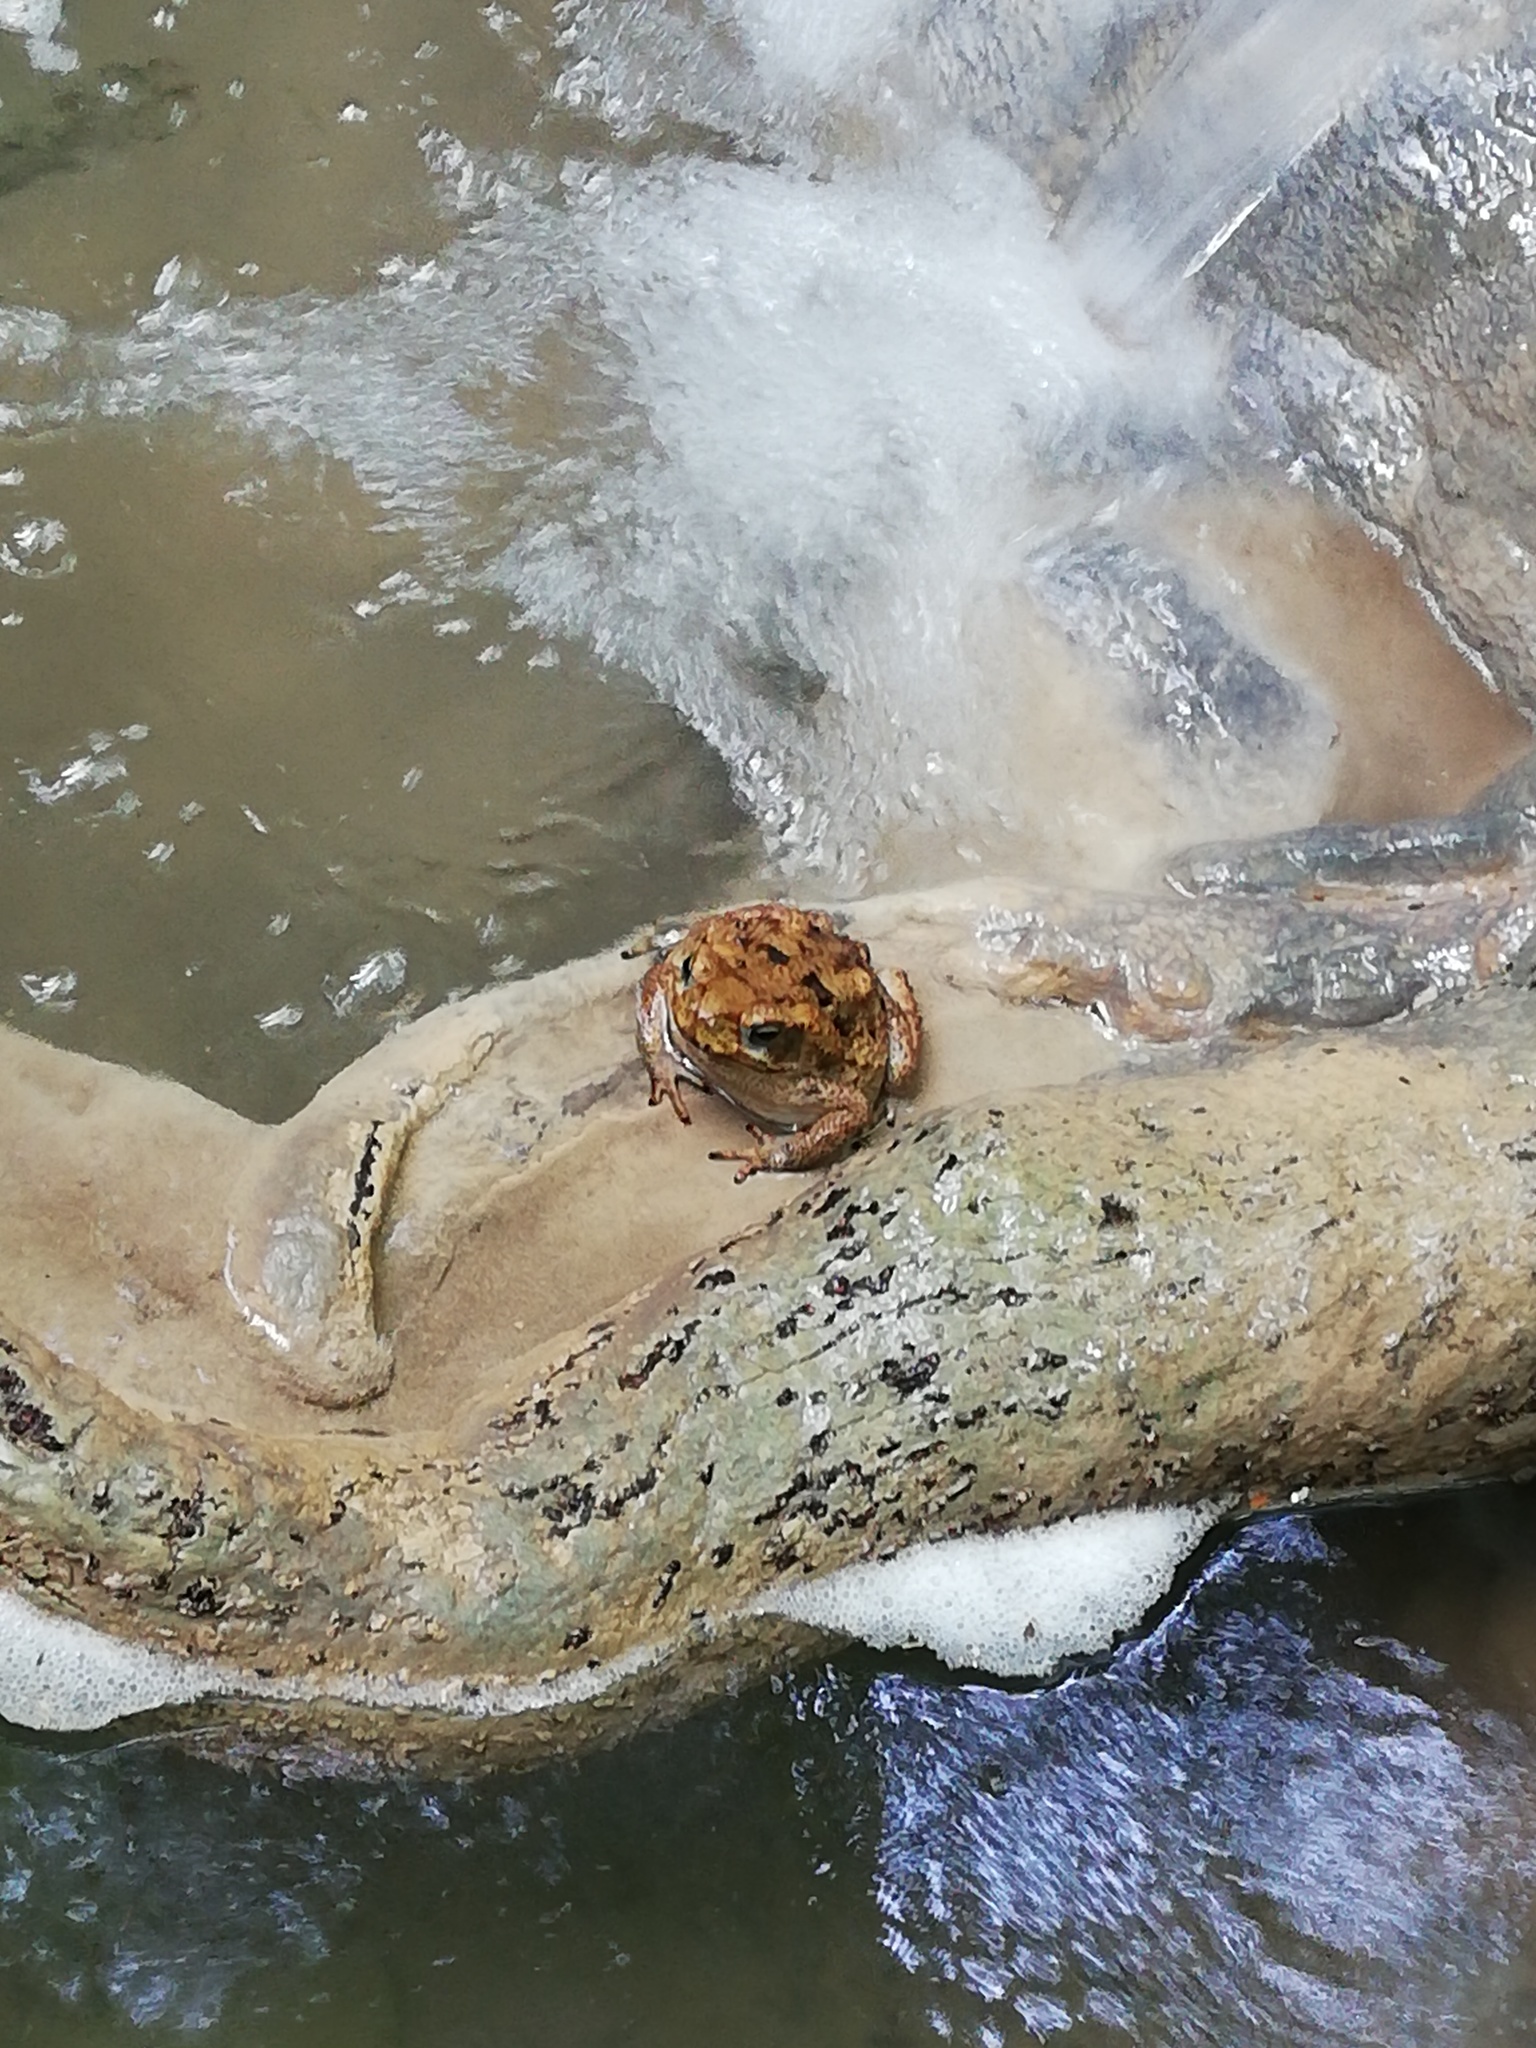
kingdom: Animalia
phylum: Chordata
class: Amphibia
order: Anura
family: Bufonidae
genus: Rhinella
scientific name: Rhinella horribilis
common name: Mesoamerican cane toad
